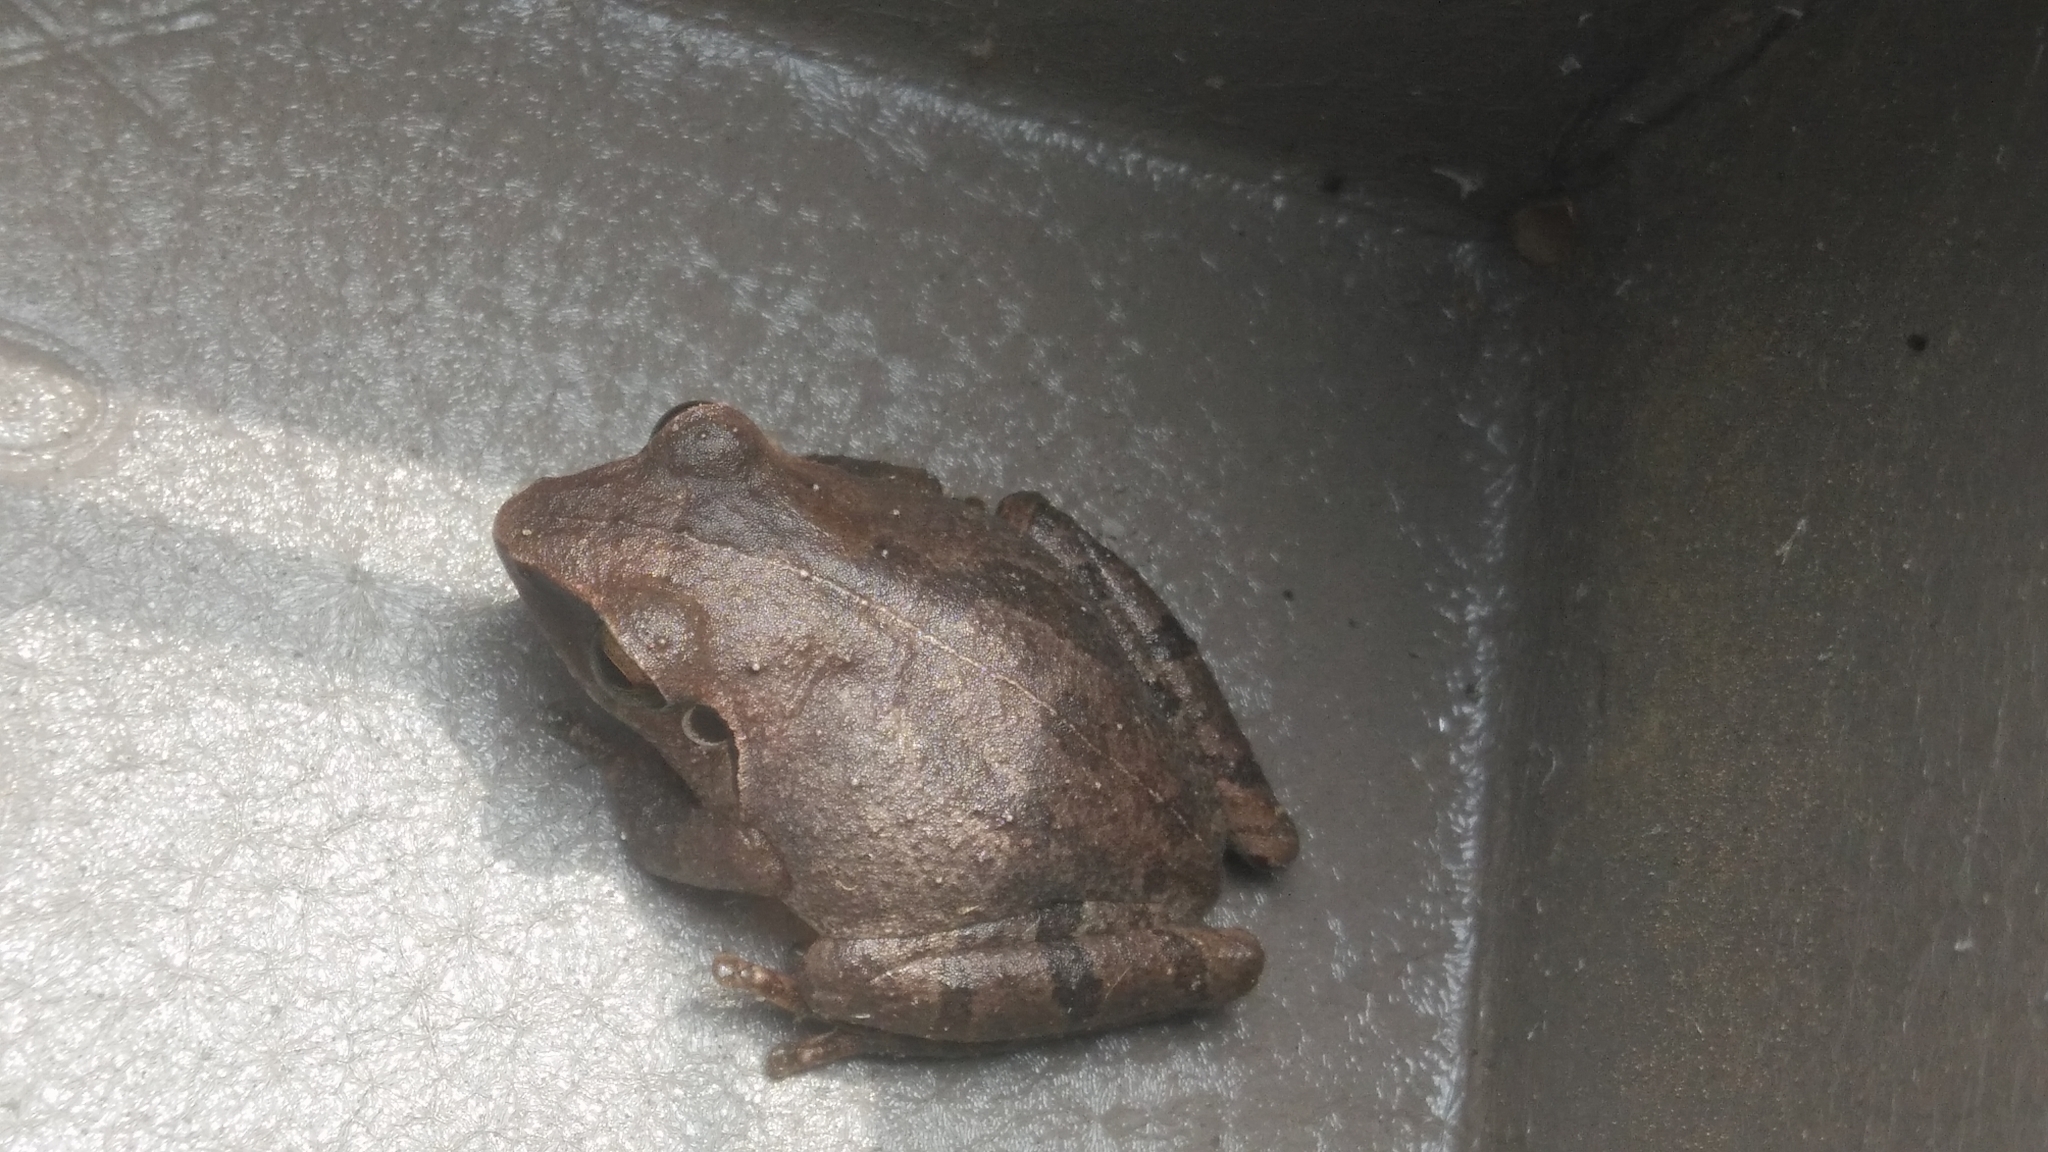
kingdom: Animalia
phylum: Chordata
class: Amphibia
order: Anura
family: Rhacophoridae
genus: Polypedates
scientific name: Polypedates maculatus
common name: Himalayan tree frog
